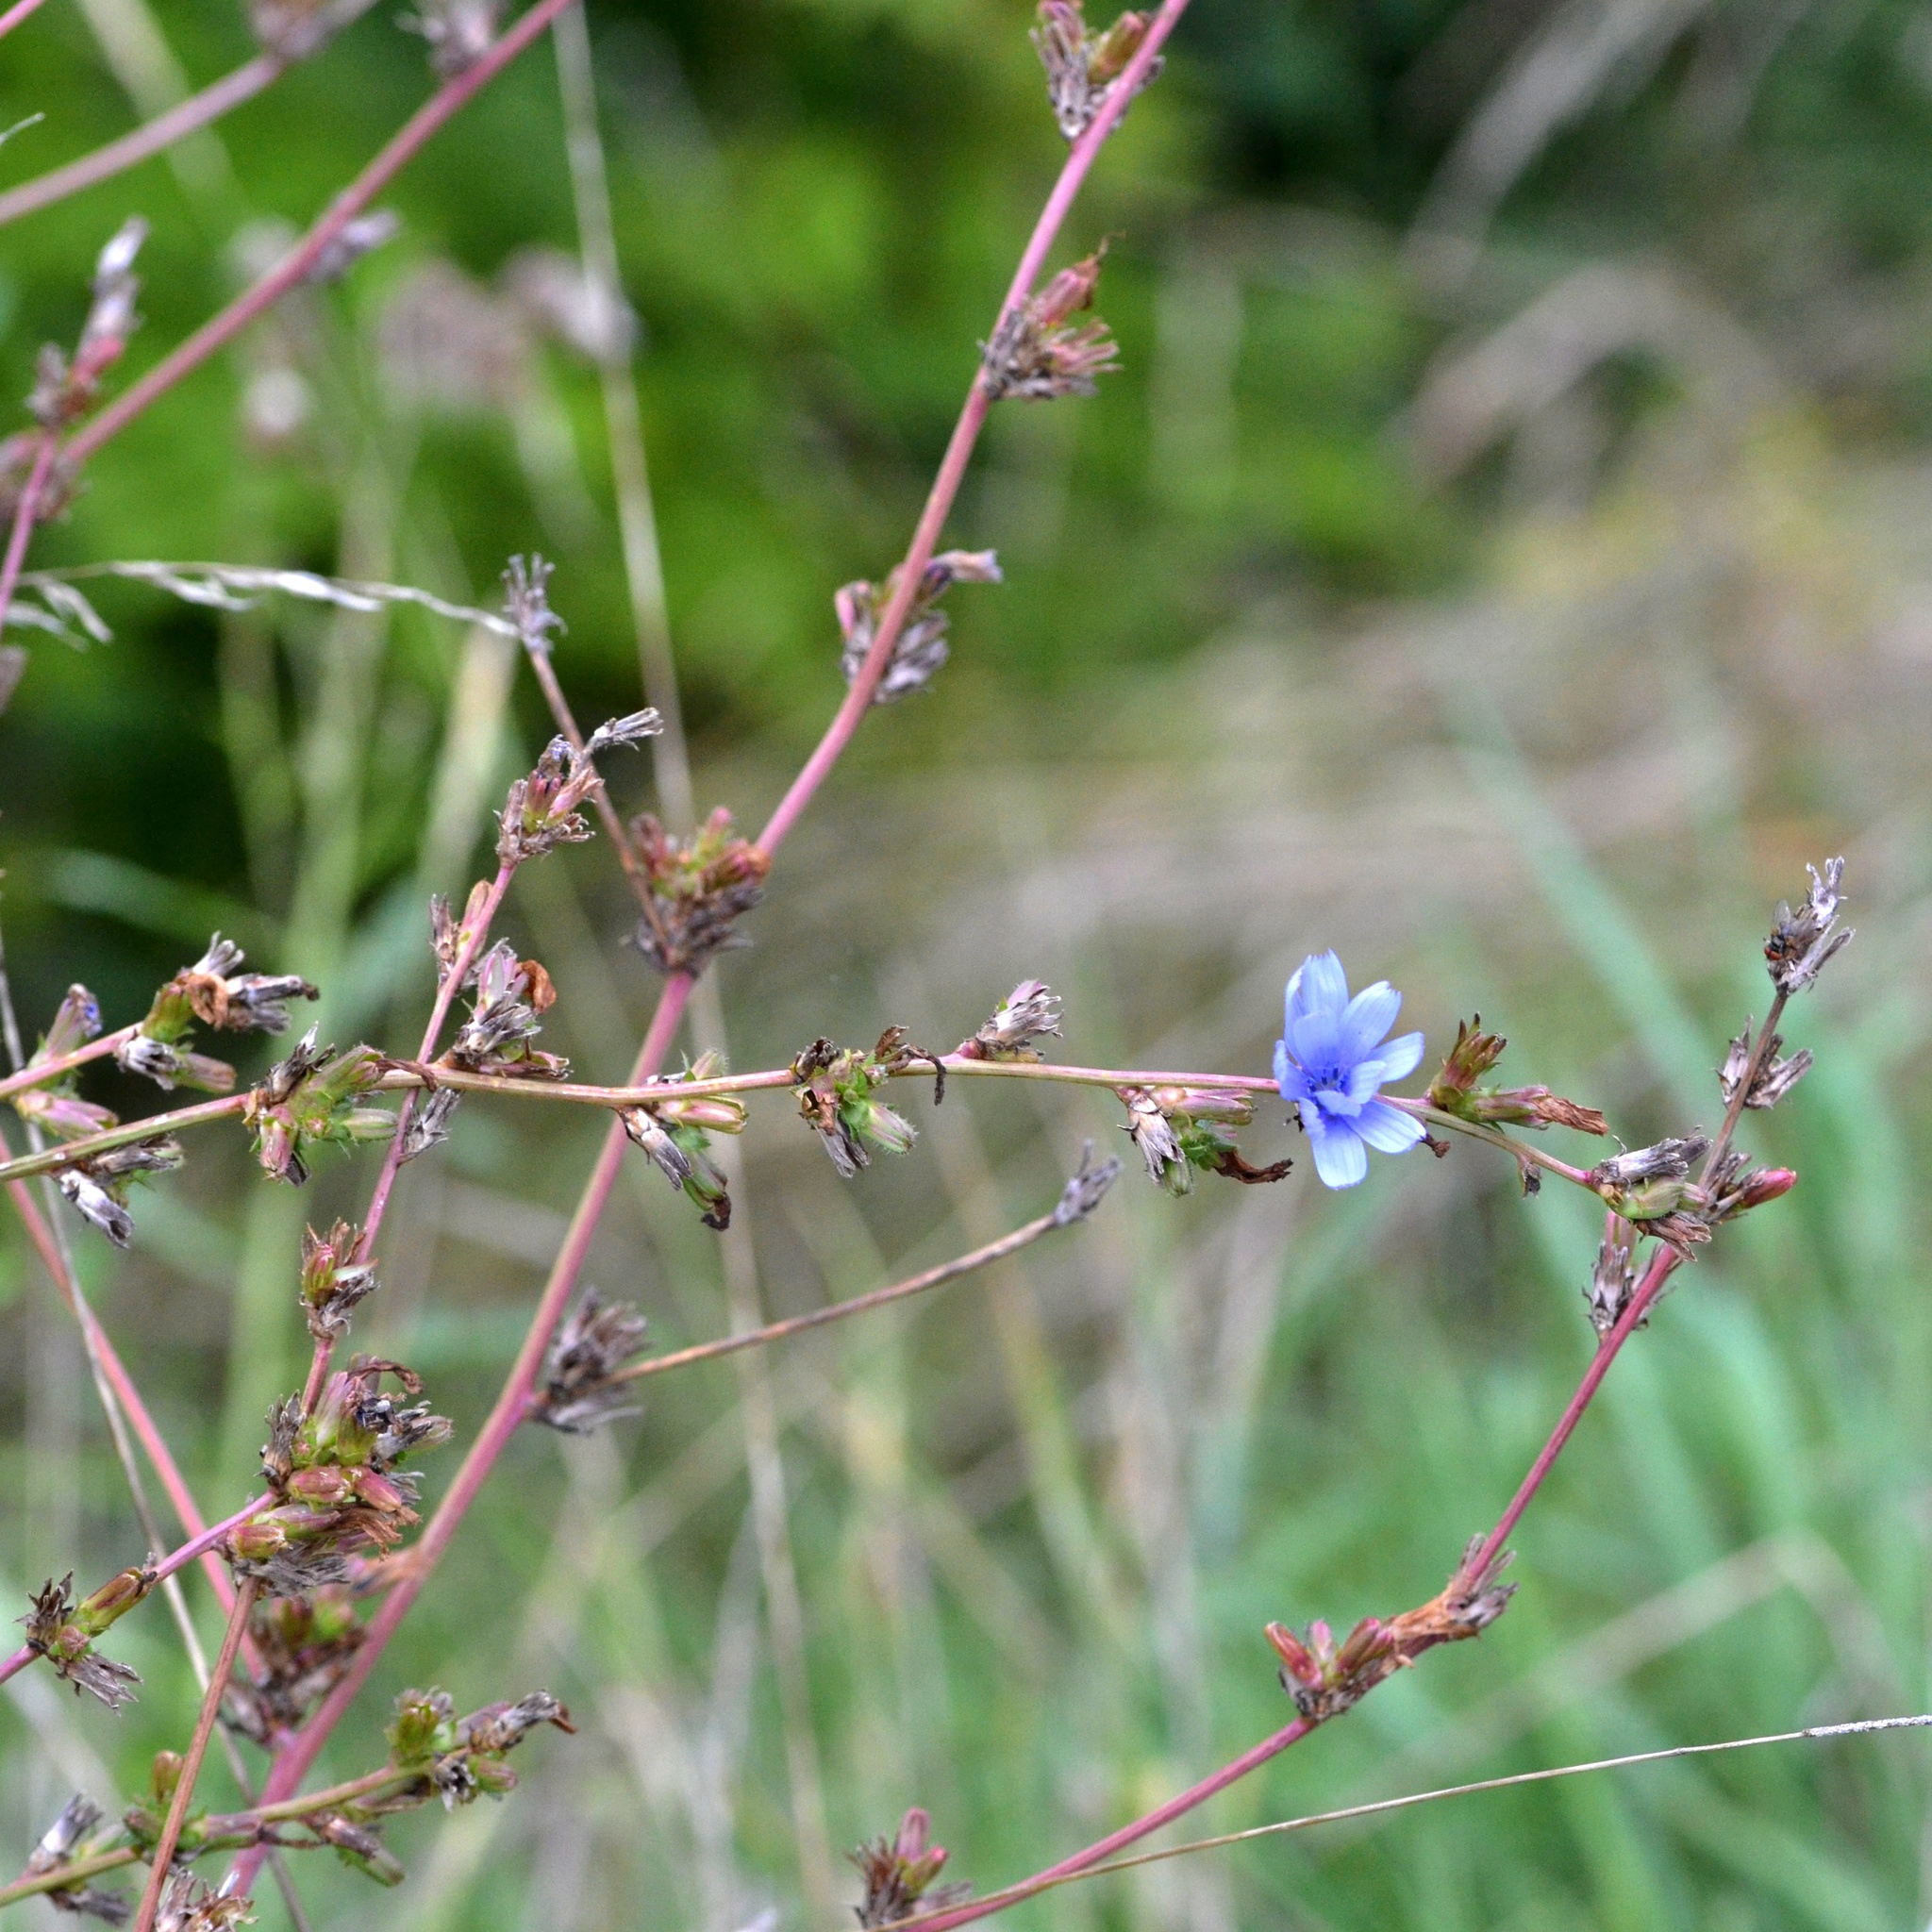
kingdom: Plantae
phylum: Tracheophyta
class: Magnoliopsida
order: Asterales
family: Asteraceae
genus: Cichorium
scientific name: Cichorium intybus
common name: Chicory
